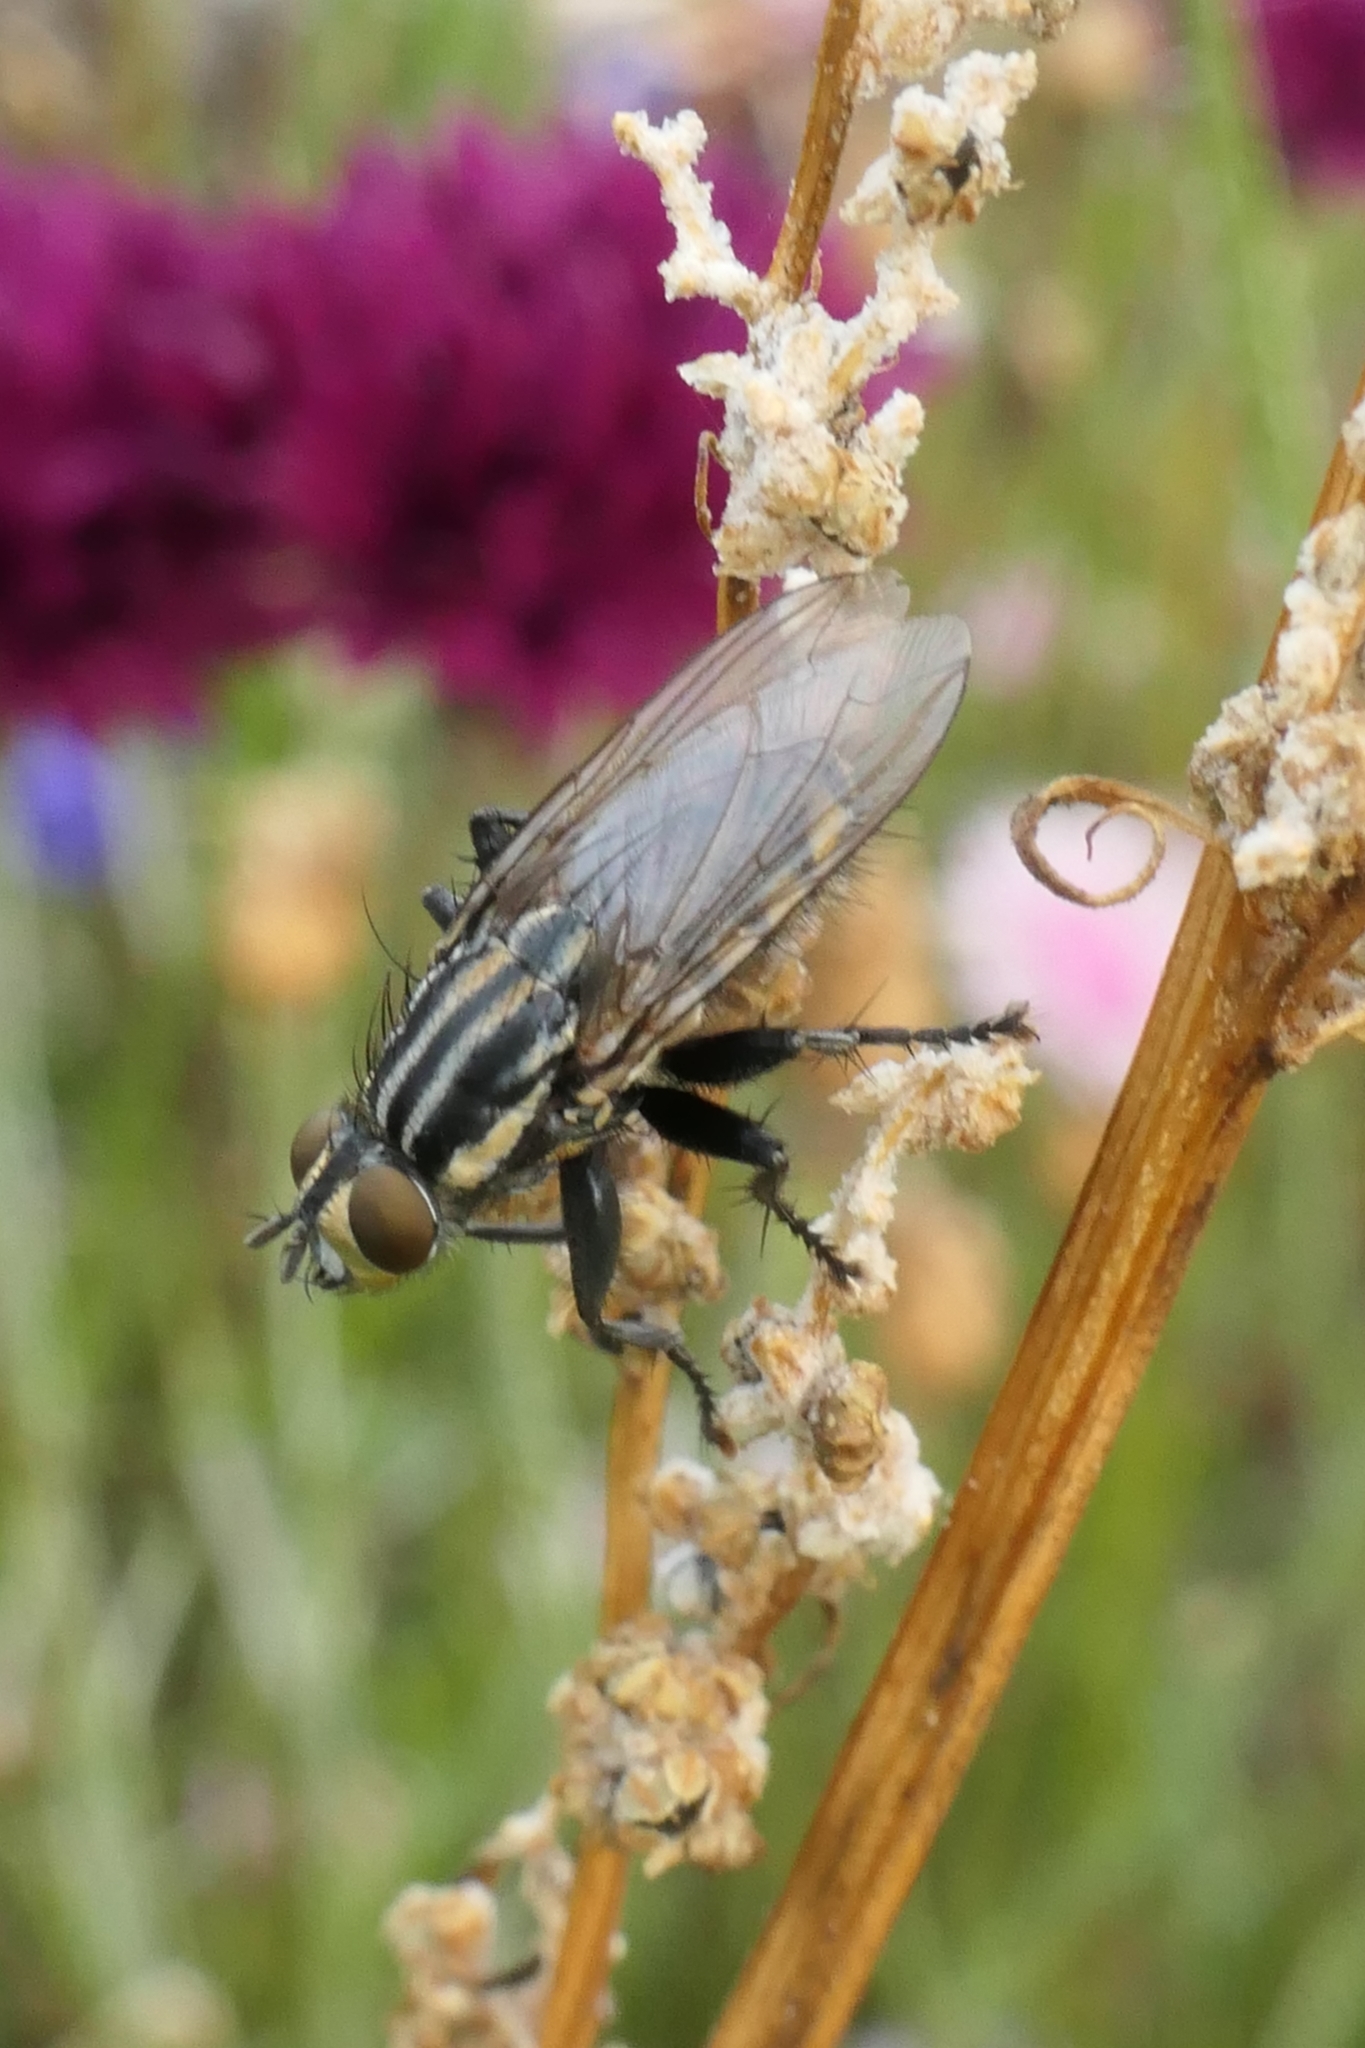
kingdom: Animalia
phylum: Arthropoda
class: Insecta
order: Diptera
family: Sarcophagidae
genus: Oxysarcodexia
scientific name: Oxysarcodexia varia
